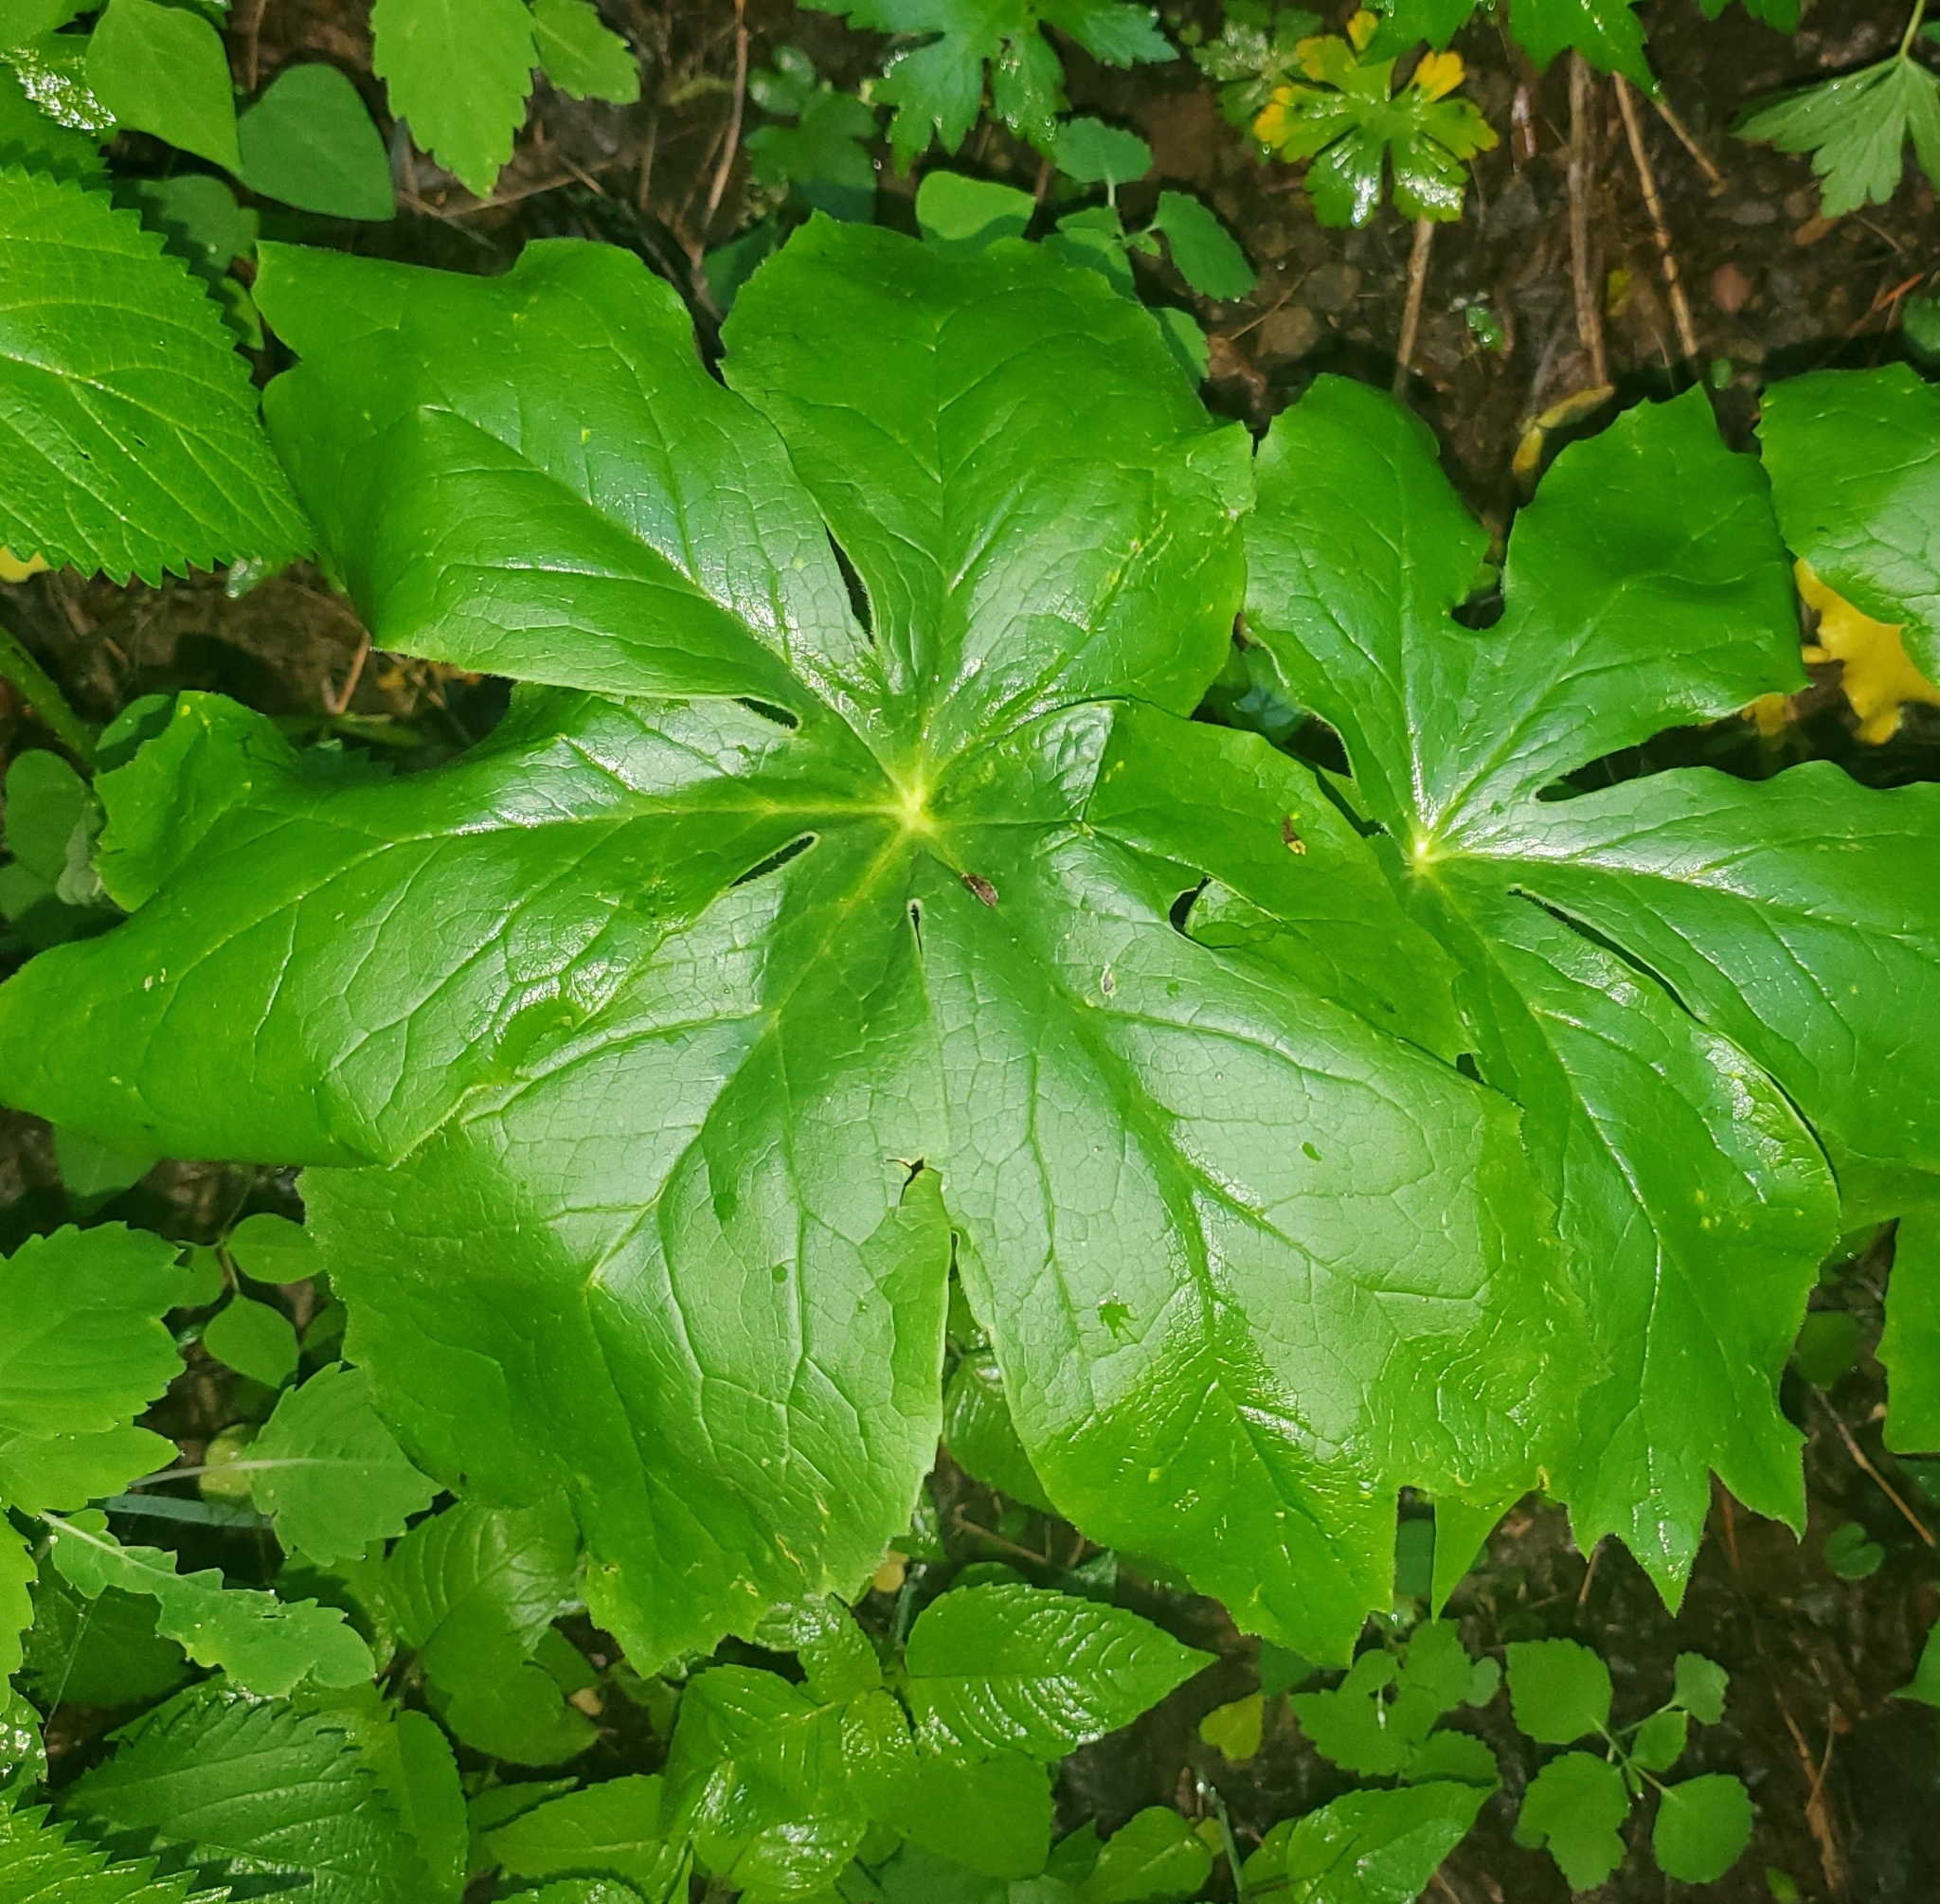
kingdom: Plantae
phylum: Tracheophyta
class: Magnoliopsida
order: Ranunculales
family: Berberidaceae
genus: Podophyllum
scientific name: Podophyllum peltatum
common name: Wild mandrake
